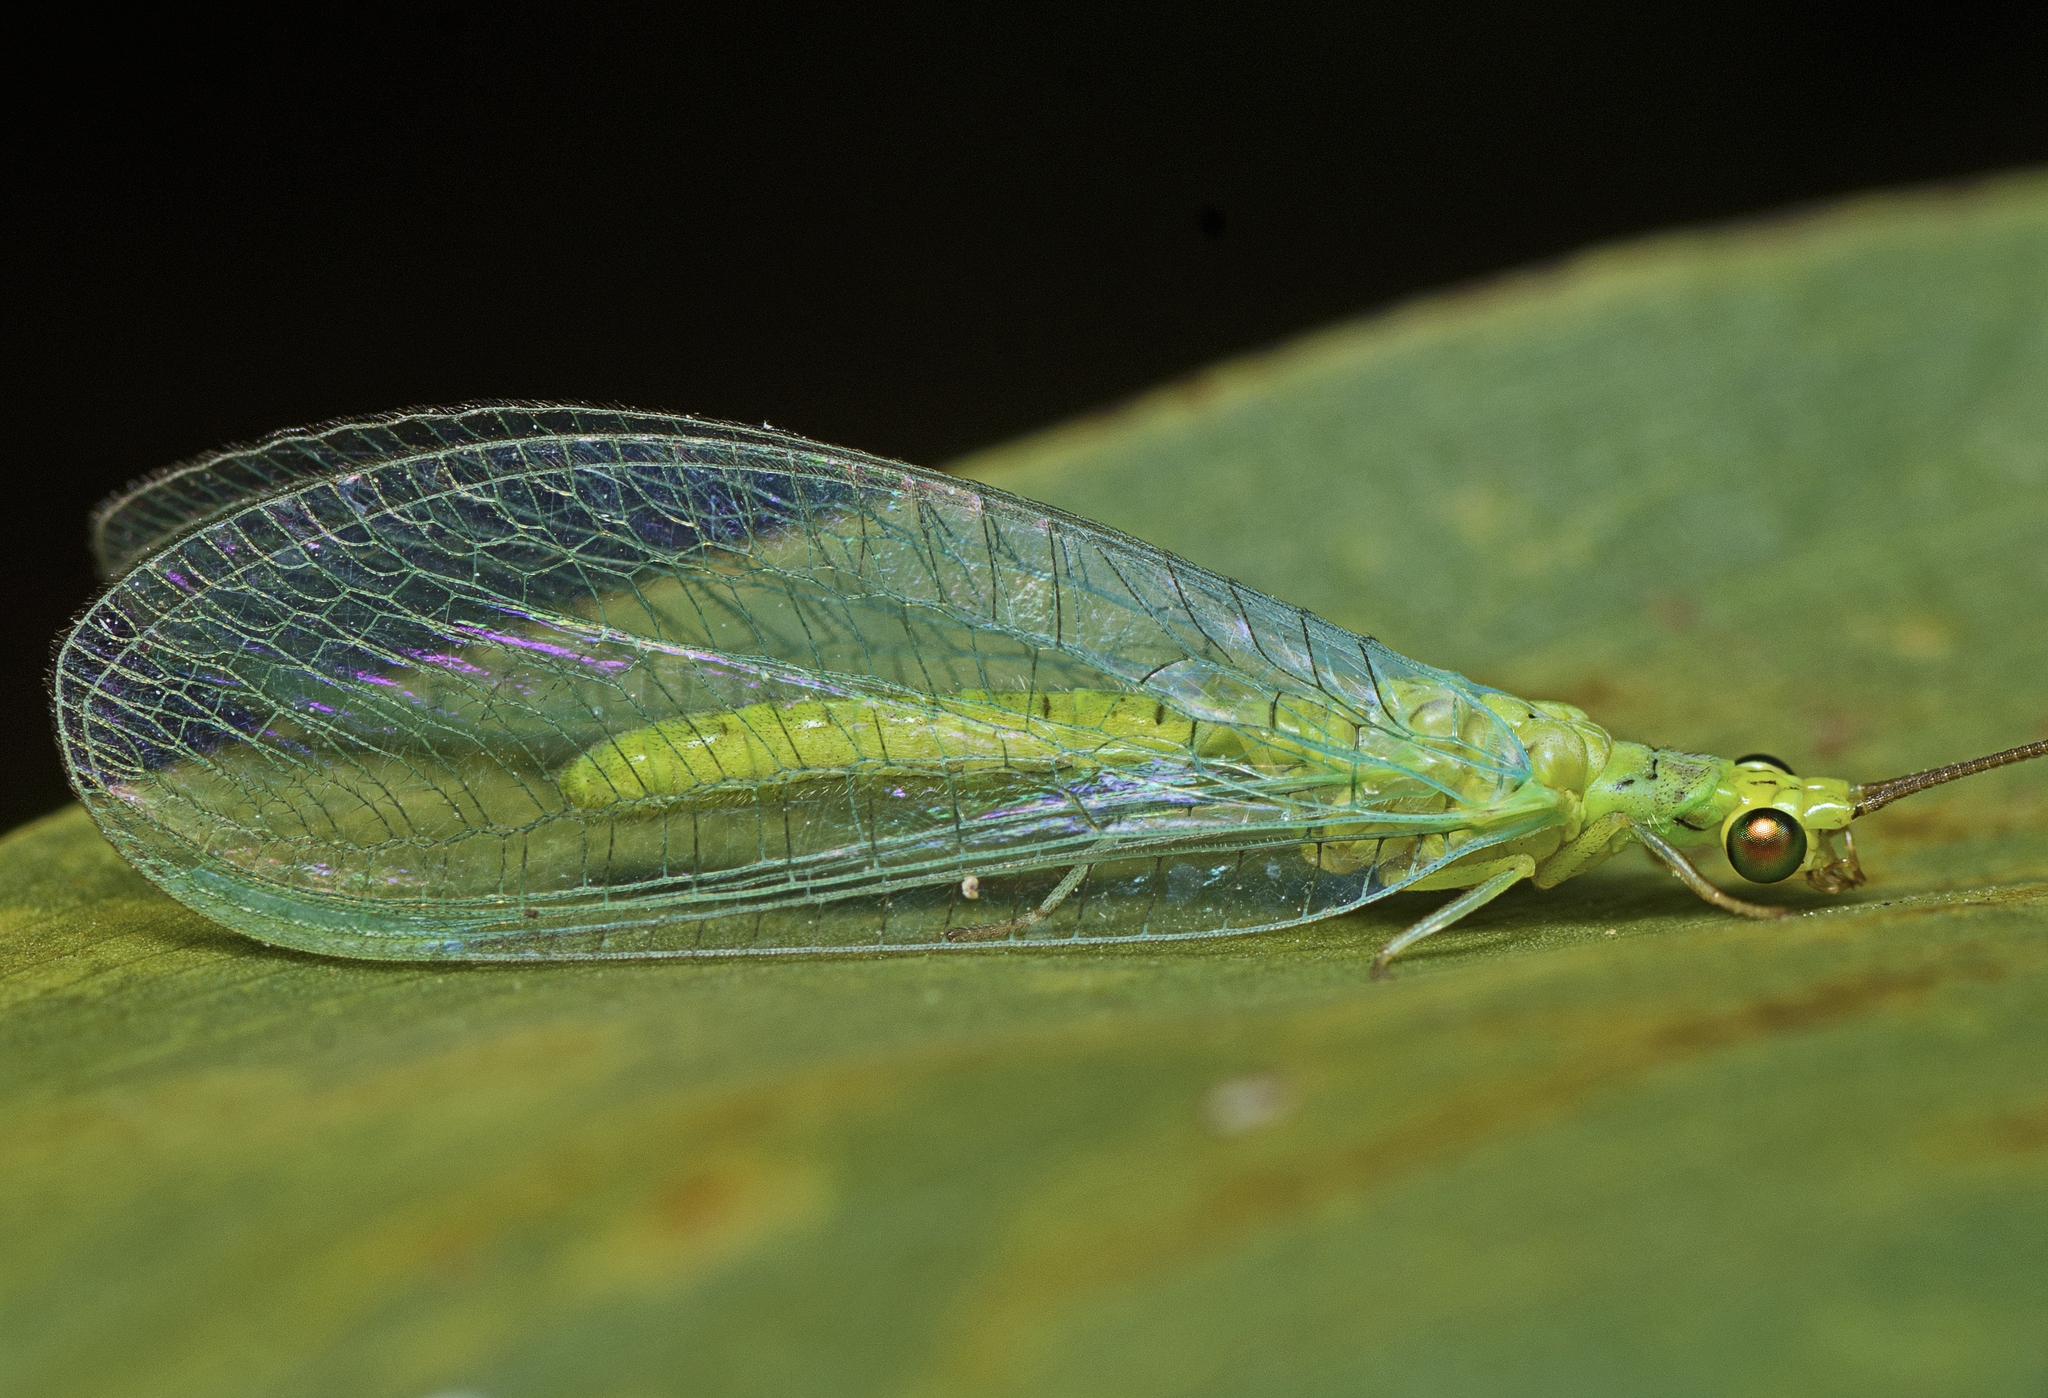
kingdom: Animalia
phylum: Arthropoda
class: Insecta
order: Neuroptera
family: Chrysopidae
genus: Plesiochrysa
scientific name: Plesiochrysa ramburi
